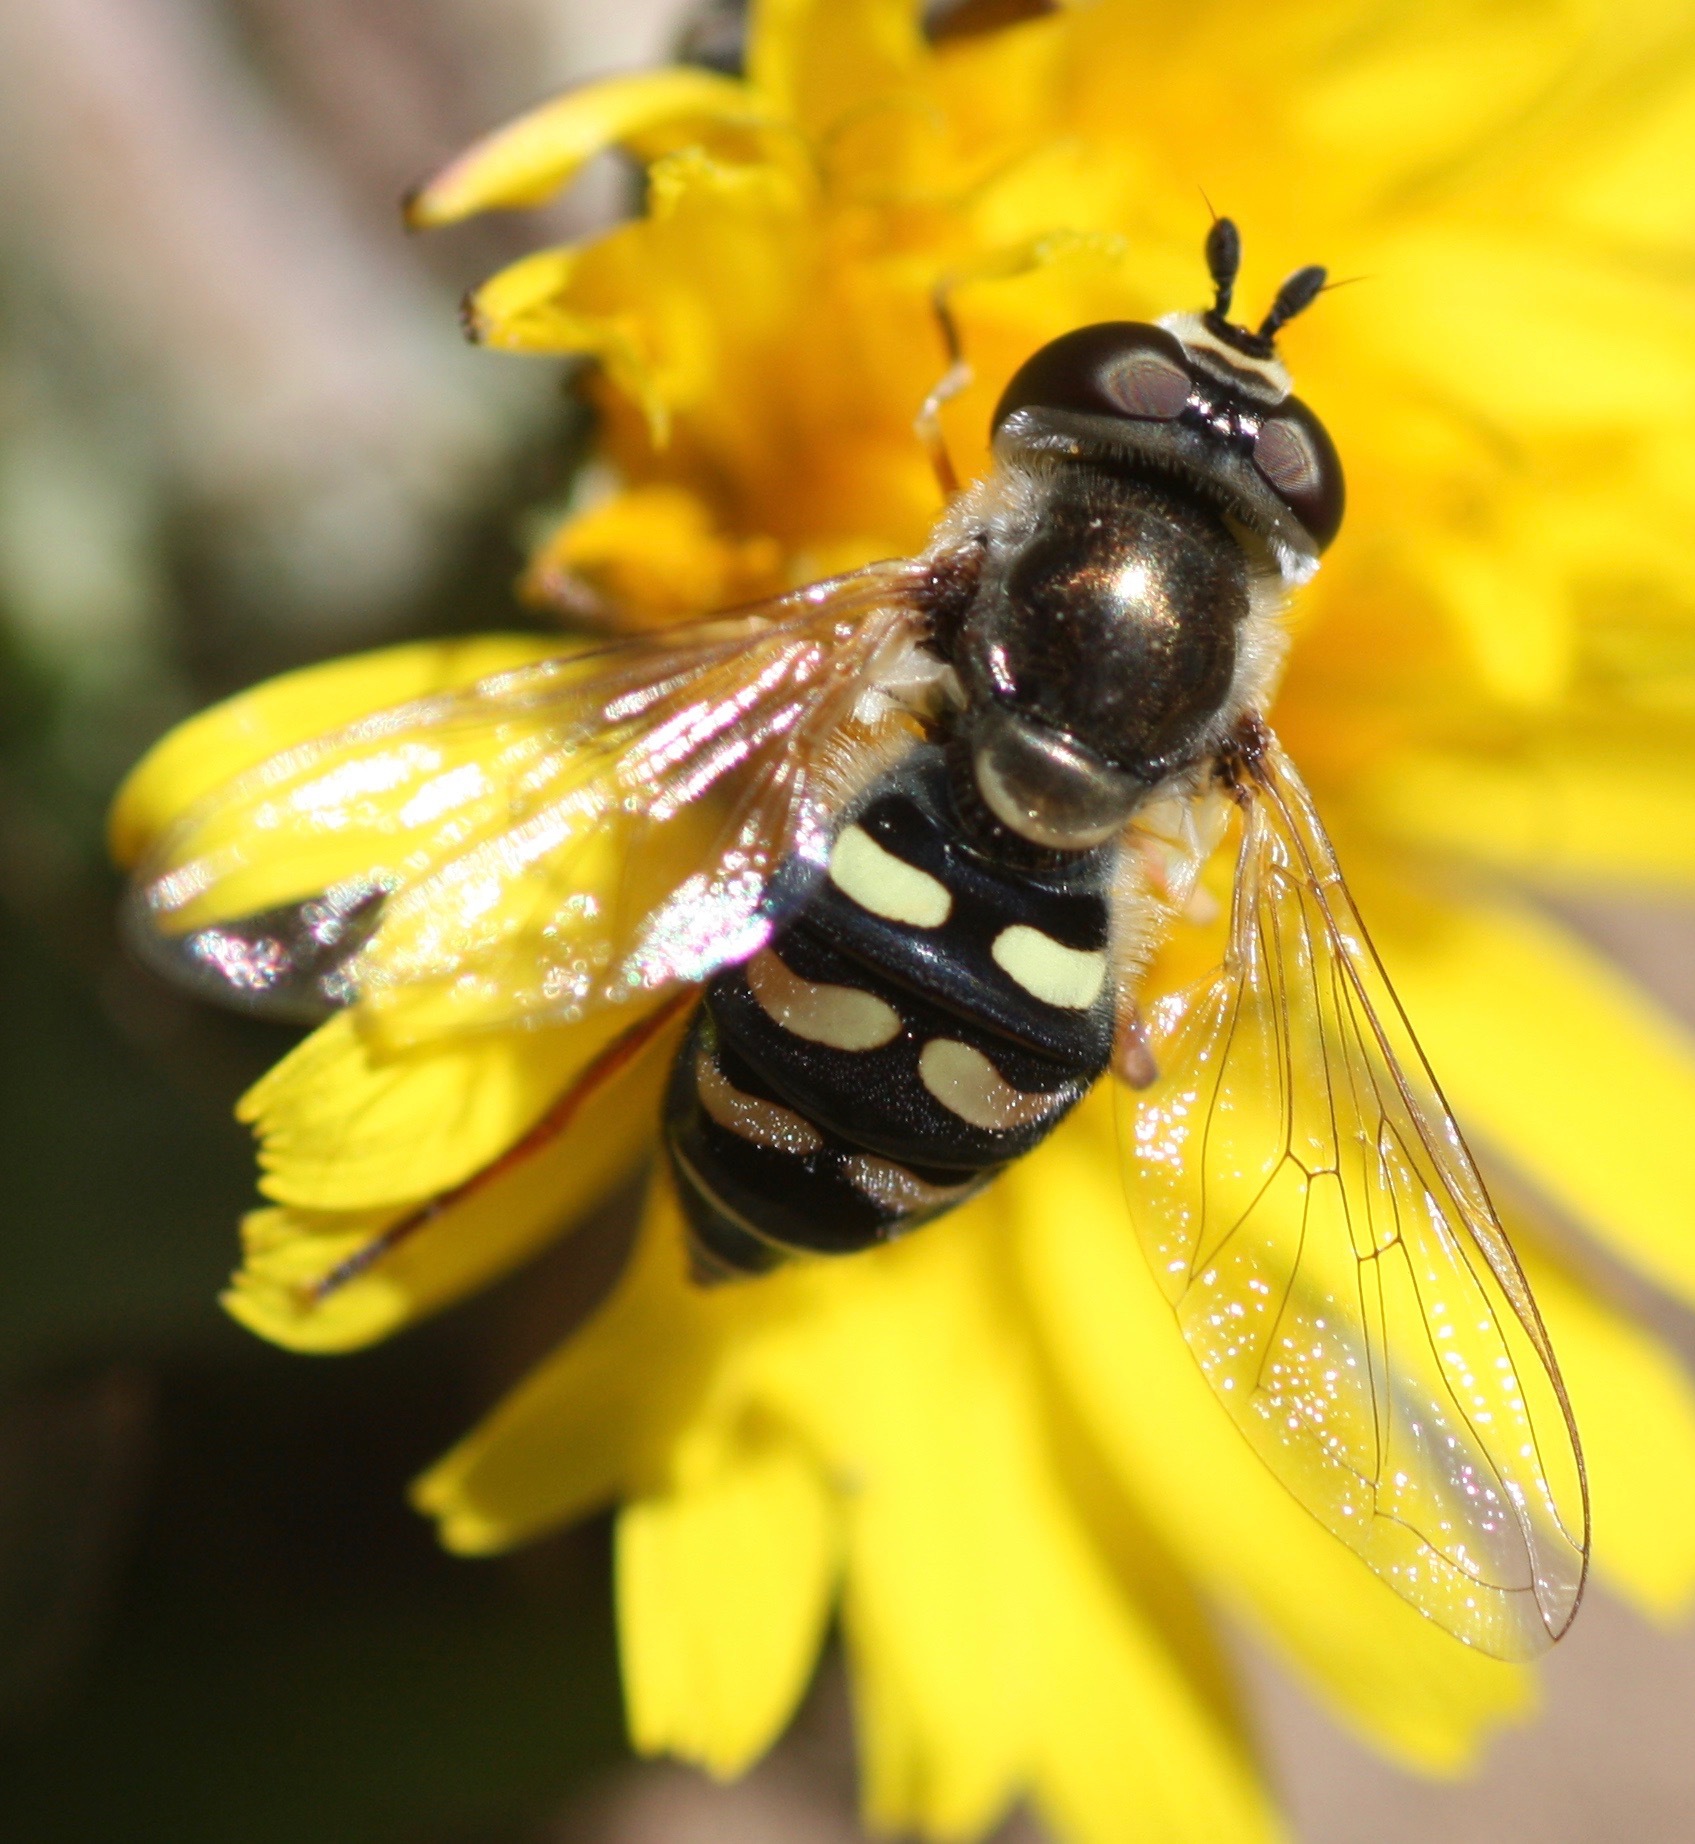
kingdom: Animalia
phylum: Arthropoda
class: Insecta
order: Diptera
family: Syrphidae
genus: Eupeodes
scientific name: Eupeodes volucris
